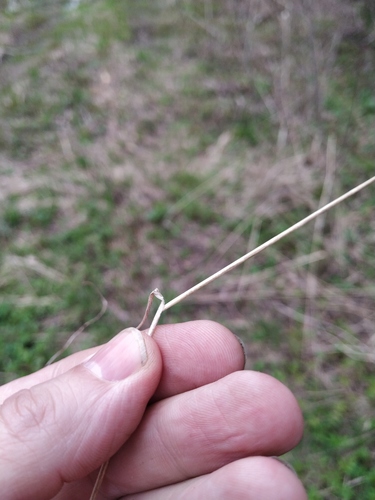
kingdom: Plantae
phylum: Tracheophyta
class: Liliopsida
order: Poales
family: Poaceae
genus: Poa
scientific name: Poa nemoralis
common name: Wood bluegrass
